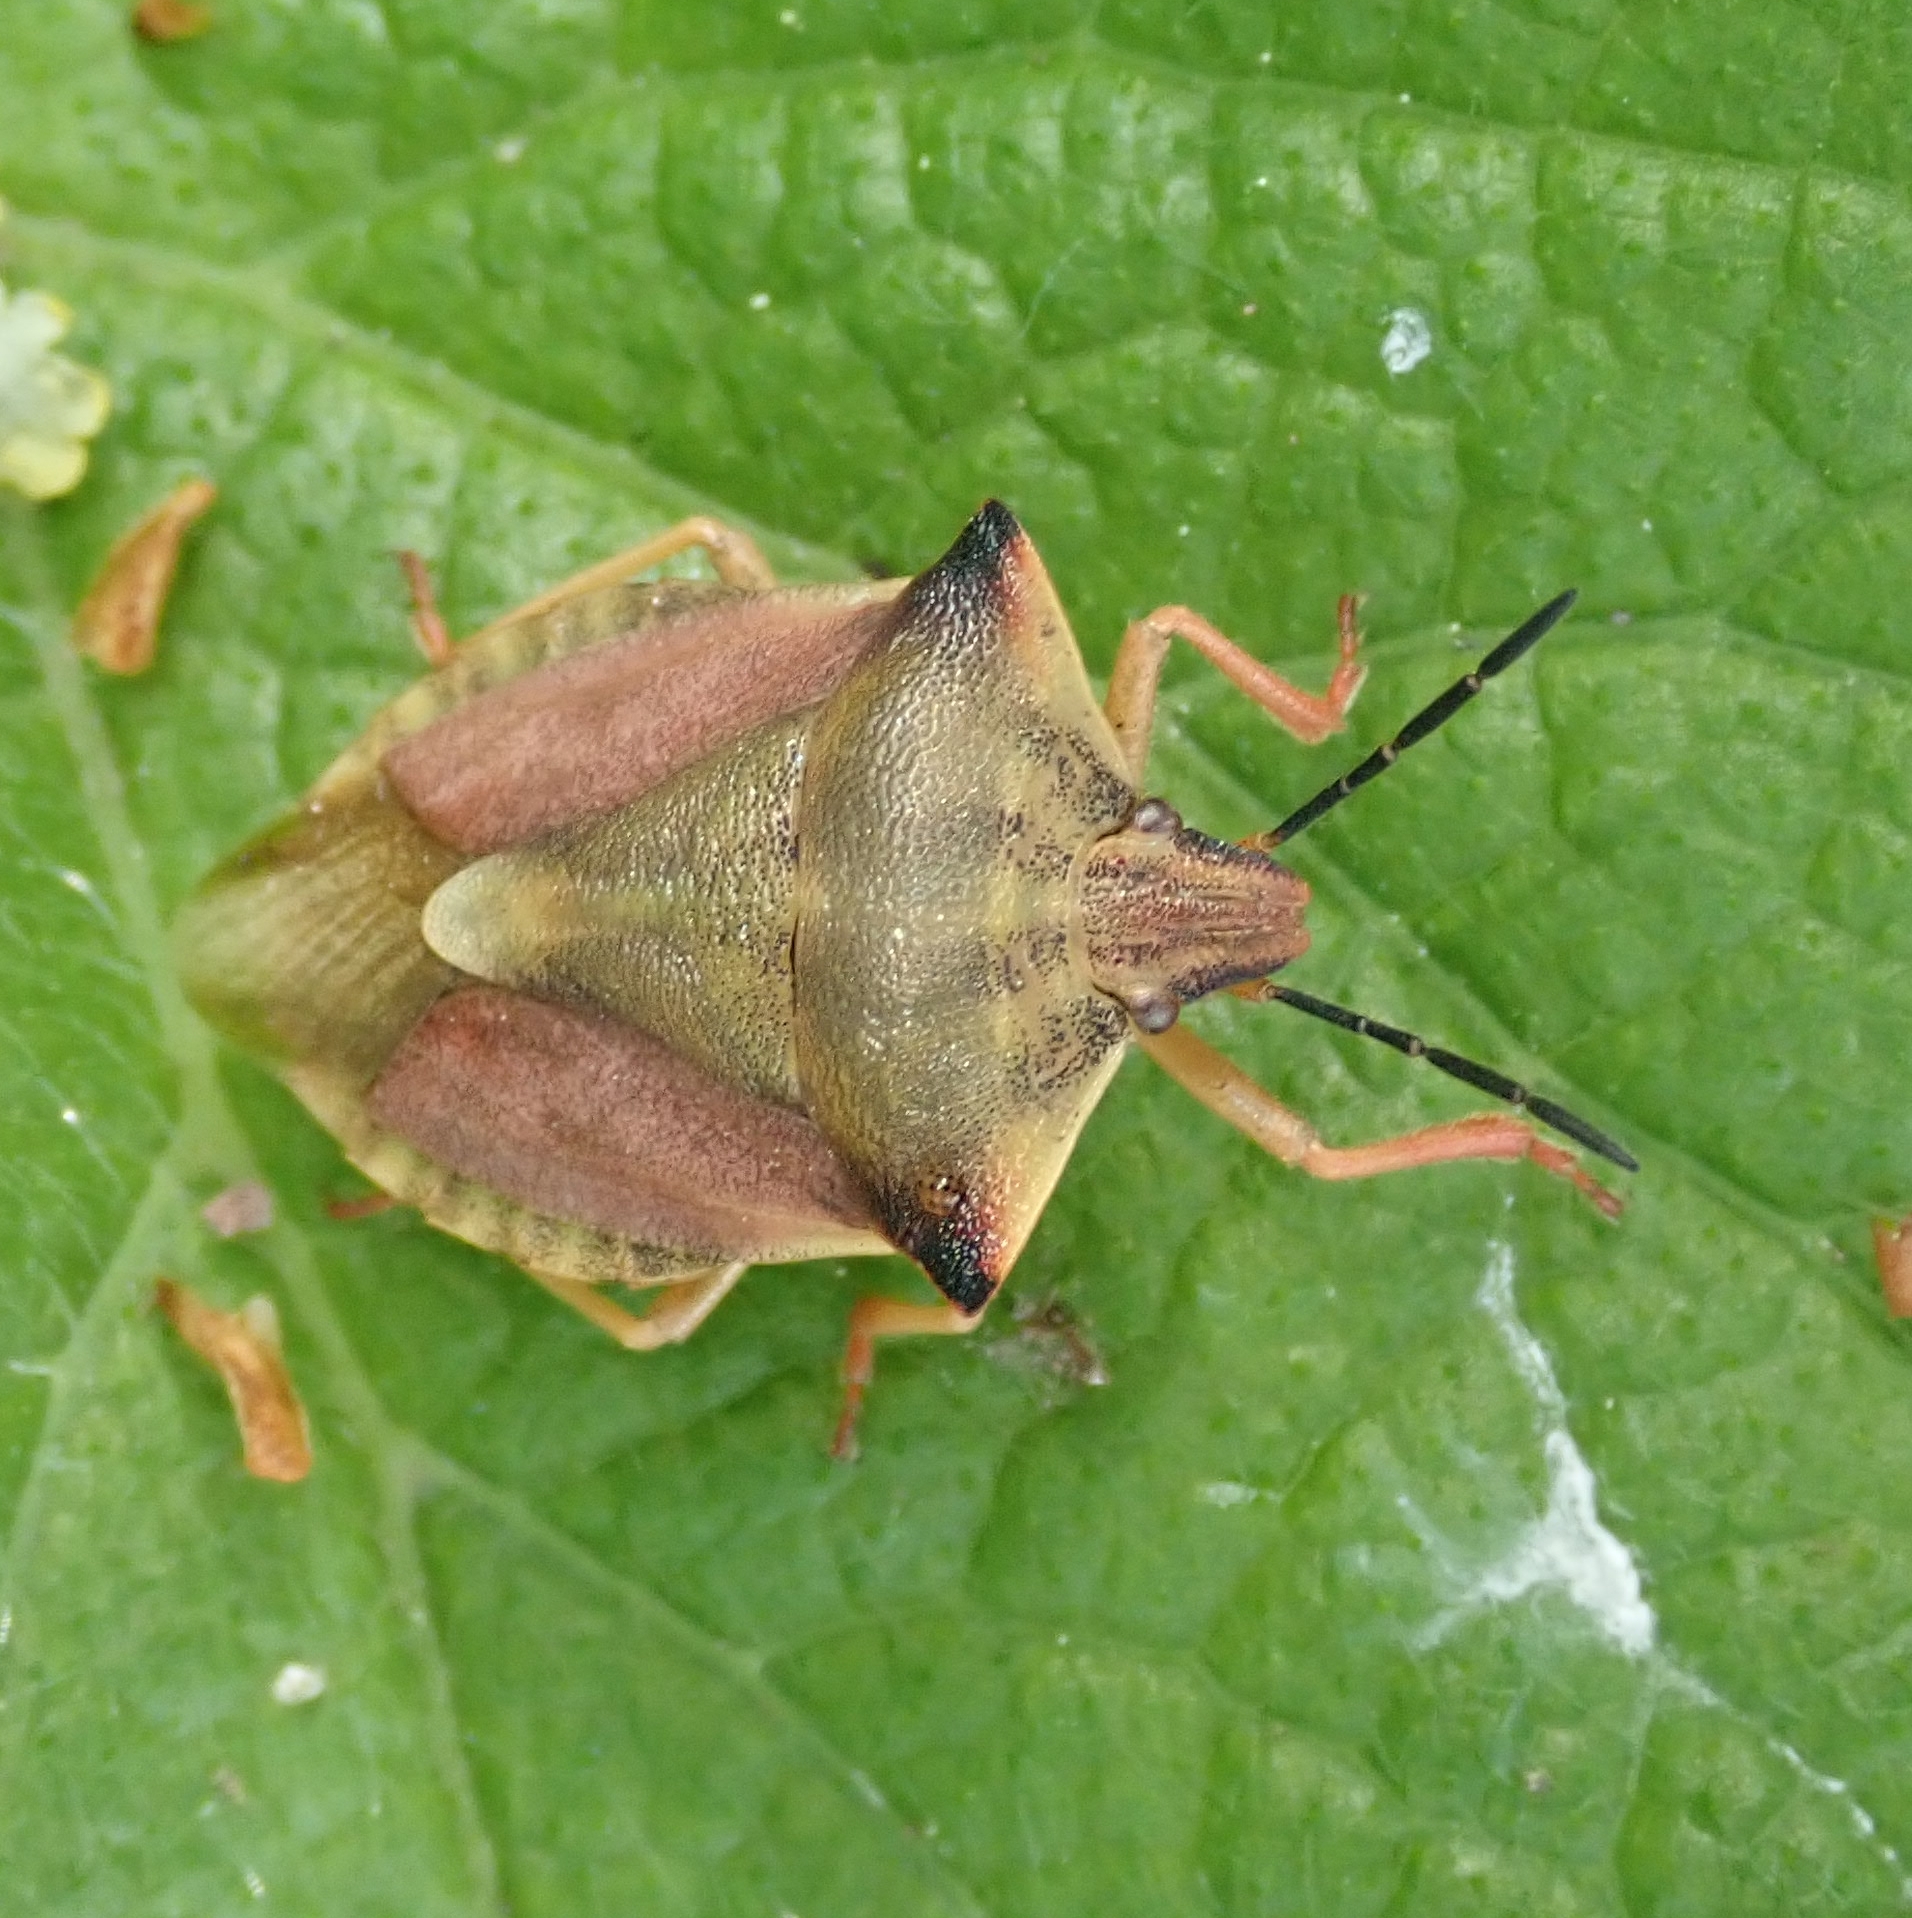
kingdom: Animalia
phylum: Arthropoda
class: Insecta
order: Hemiptera
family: Pentatomidae
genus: Carpocoris
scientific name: Carpocoris fuscispinus
